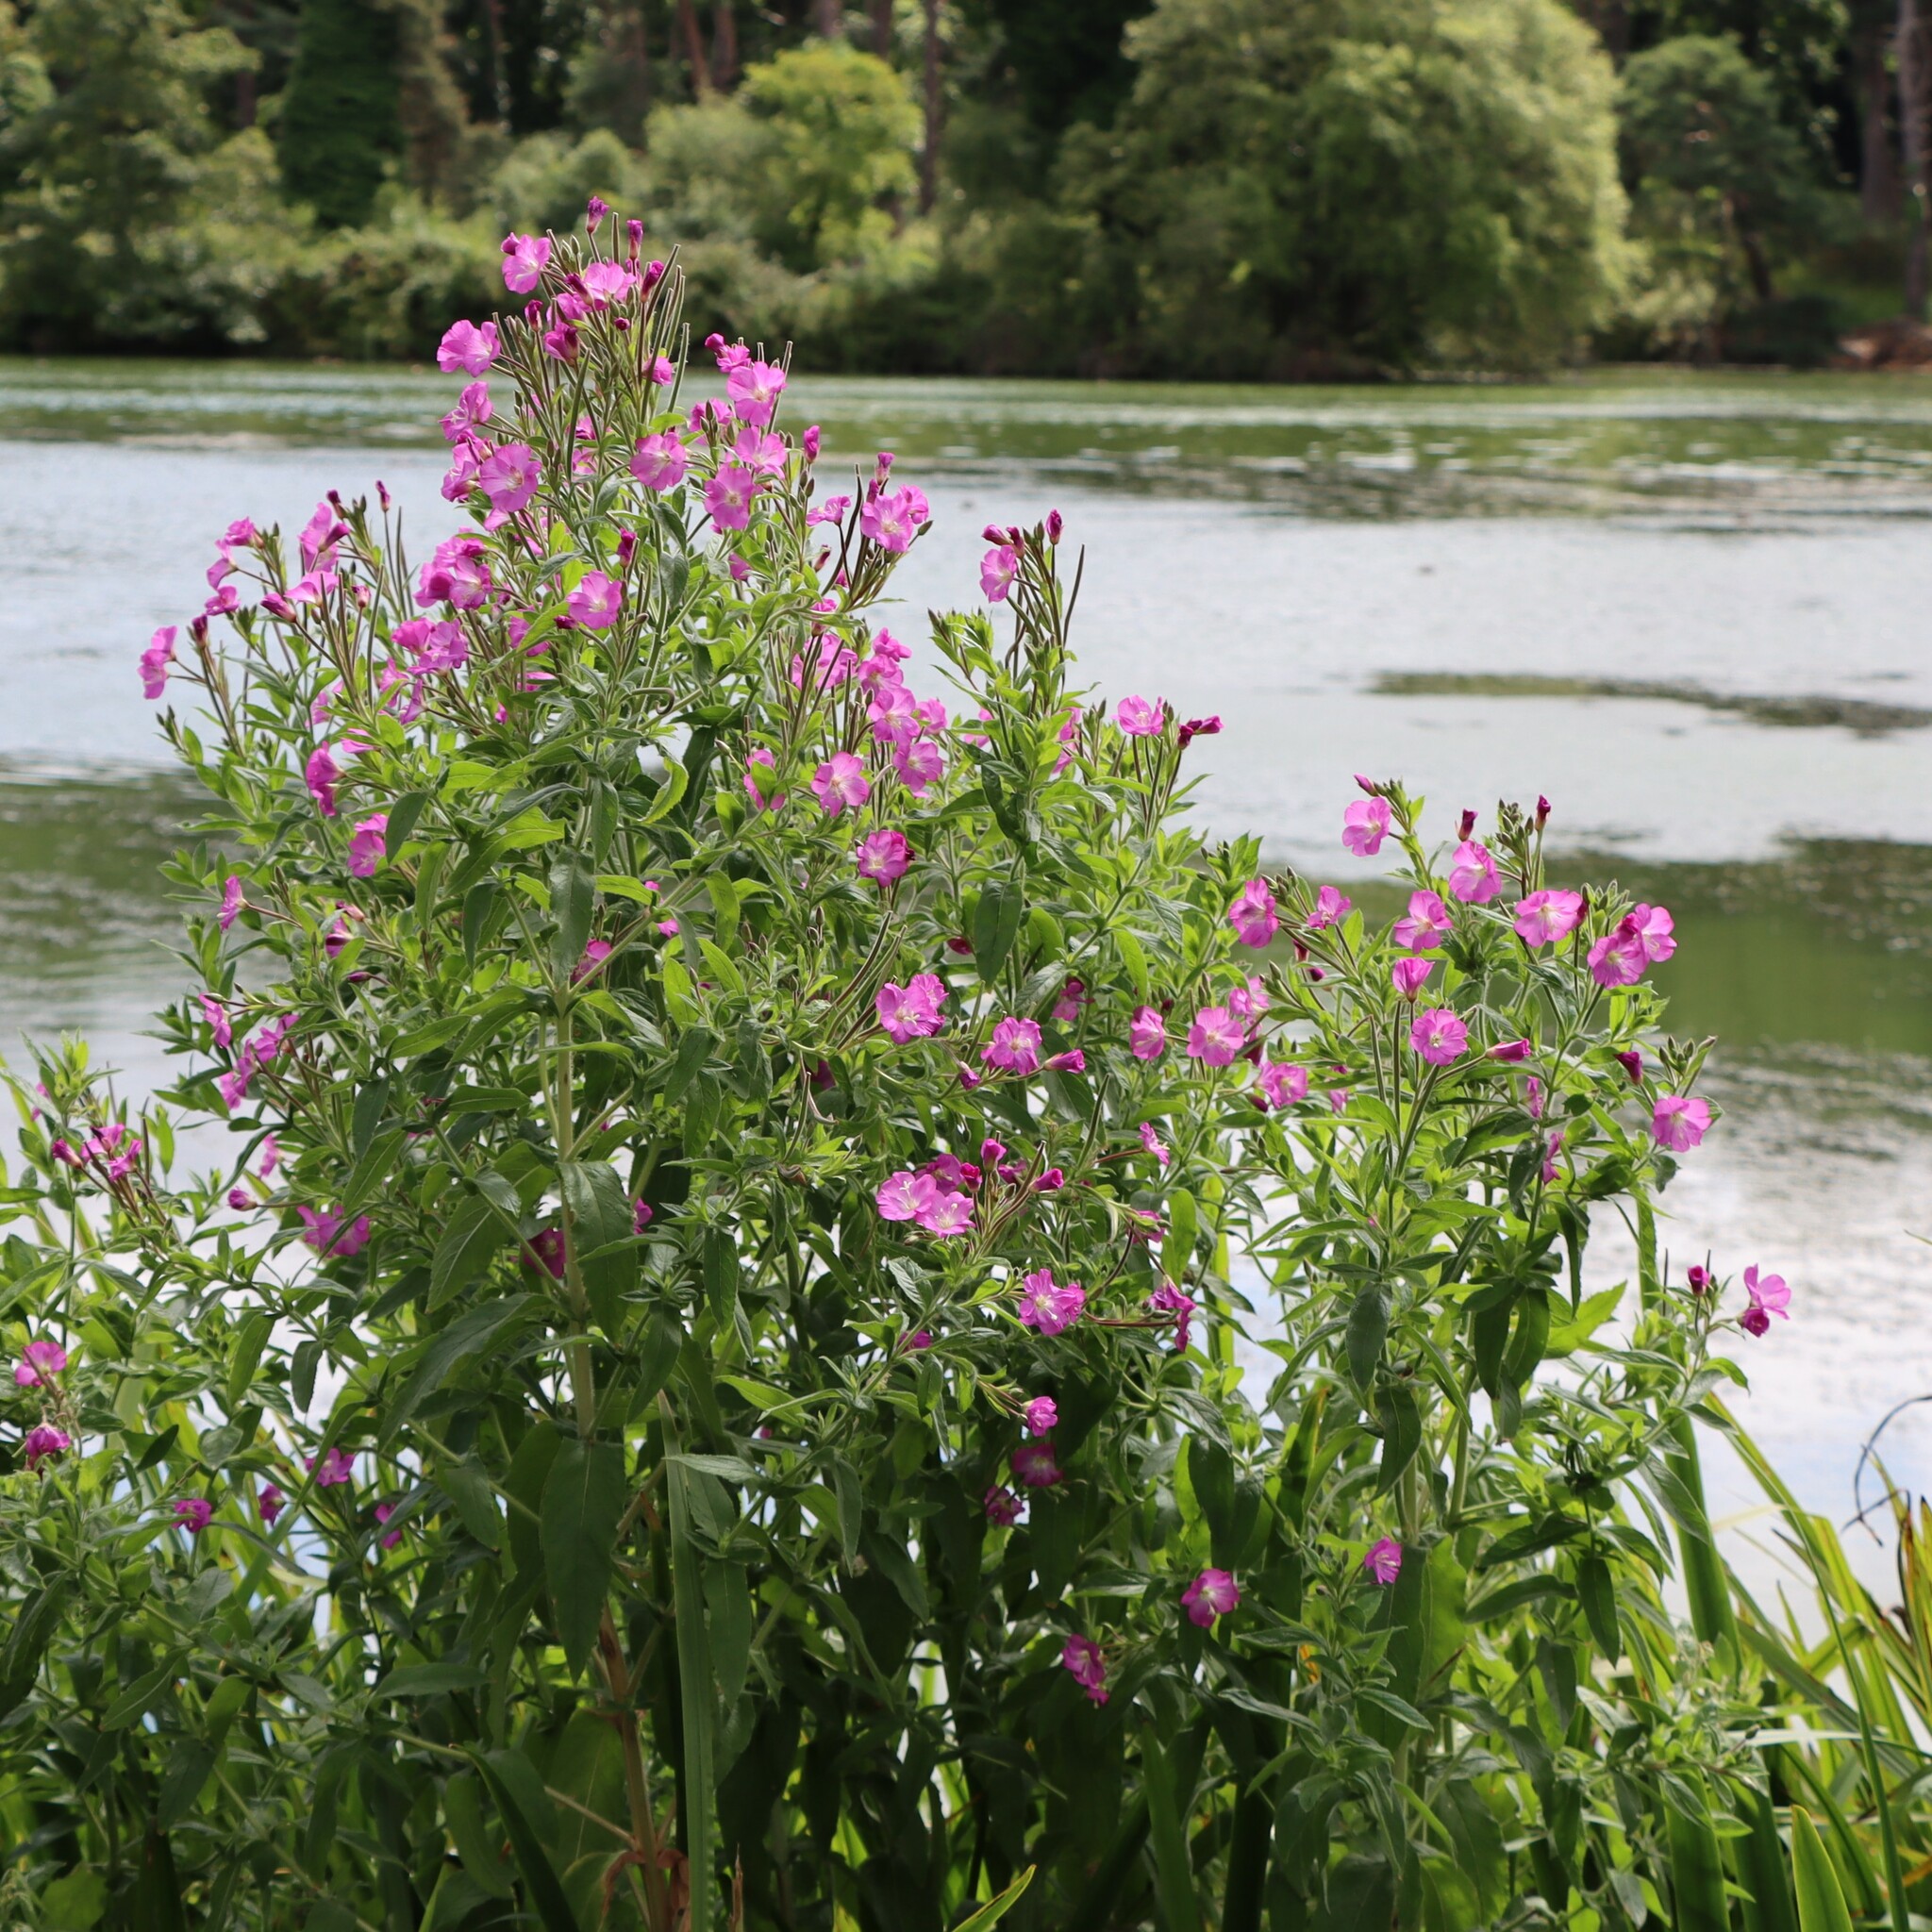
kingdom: Plantae
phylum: Tracheophyta
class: Magnoliopsida
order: Myrtales
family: Onagraceae
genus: Epilobium
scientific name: Epilobium hirsutum
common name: Great willowherb
